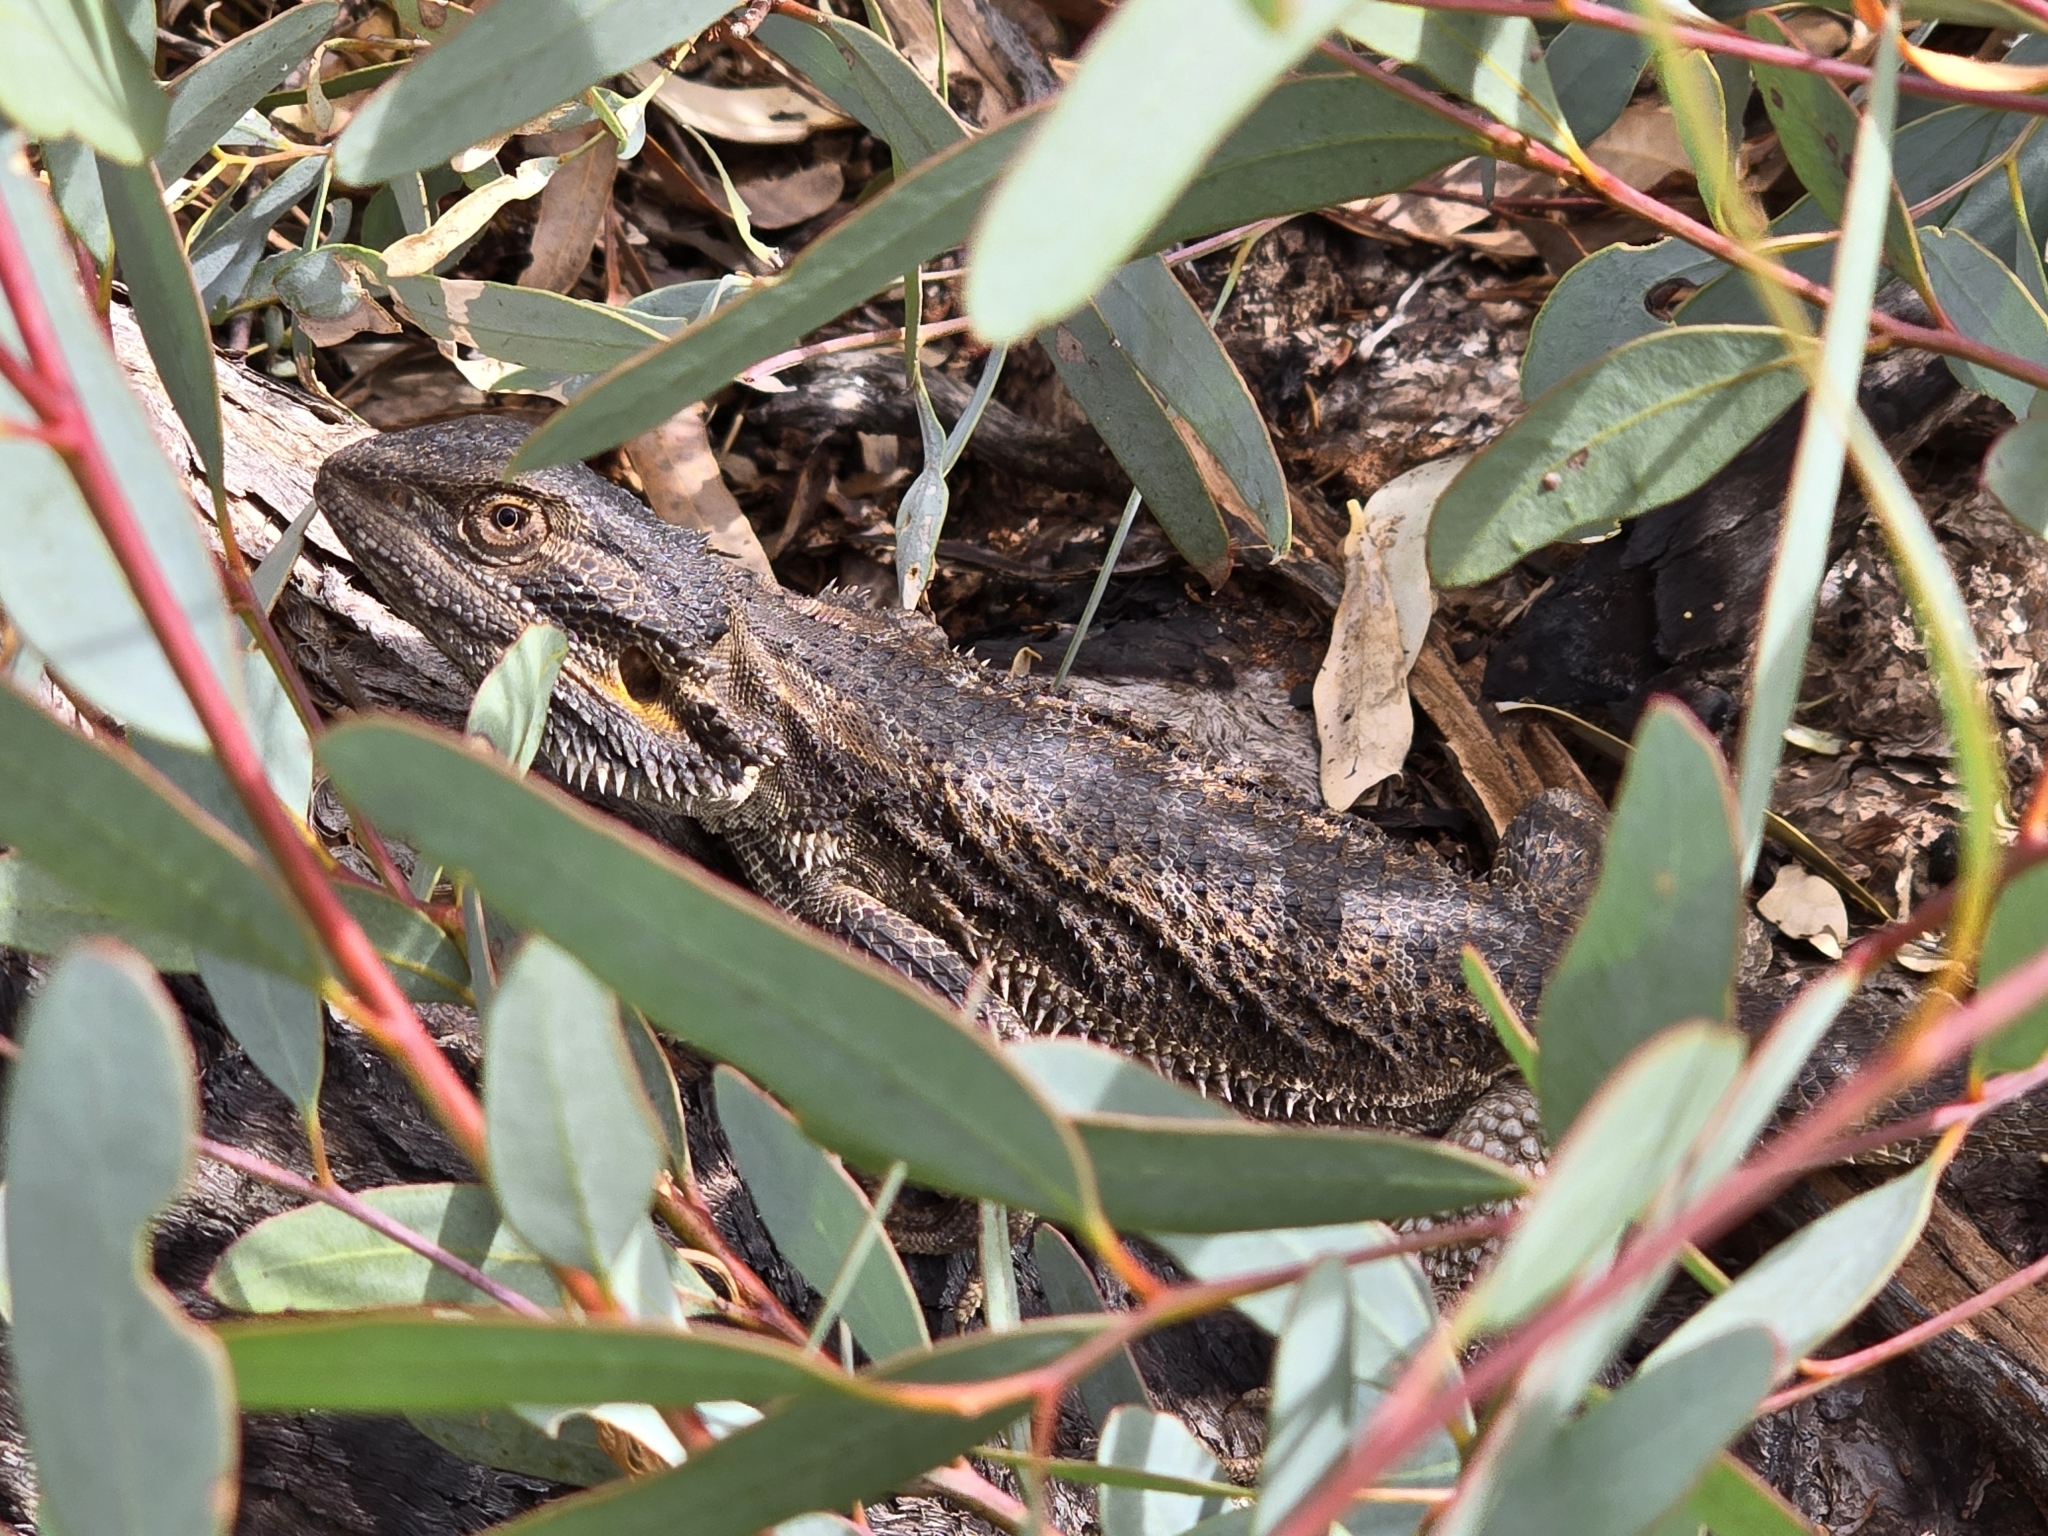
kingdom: Animalia
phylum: Chordata
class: Squamata
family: Agamidae
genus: Pogona
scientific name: Pogona vitticeps
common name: Central bearded dragon
